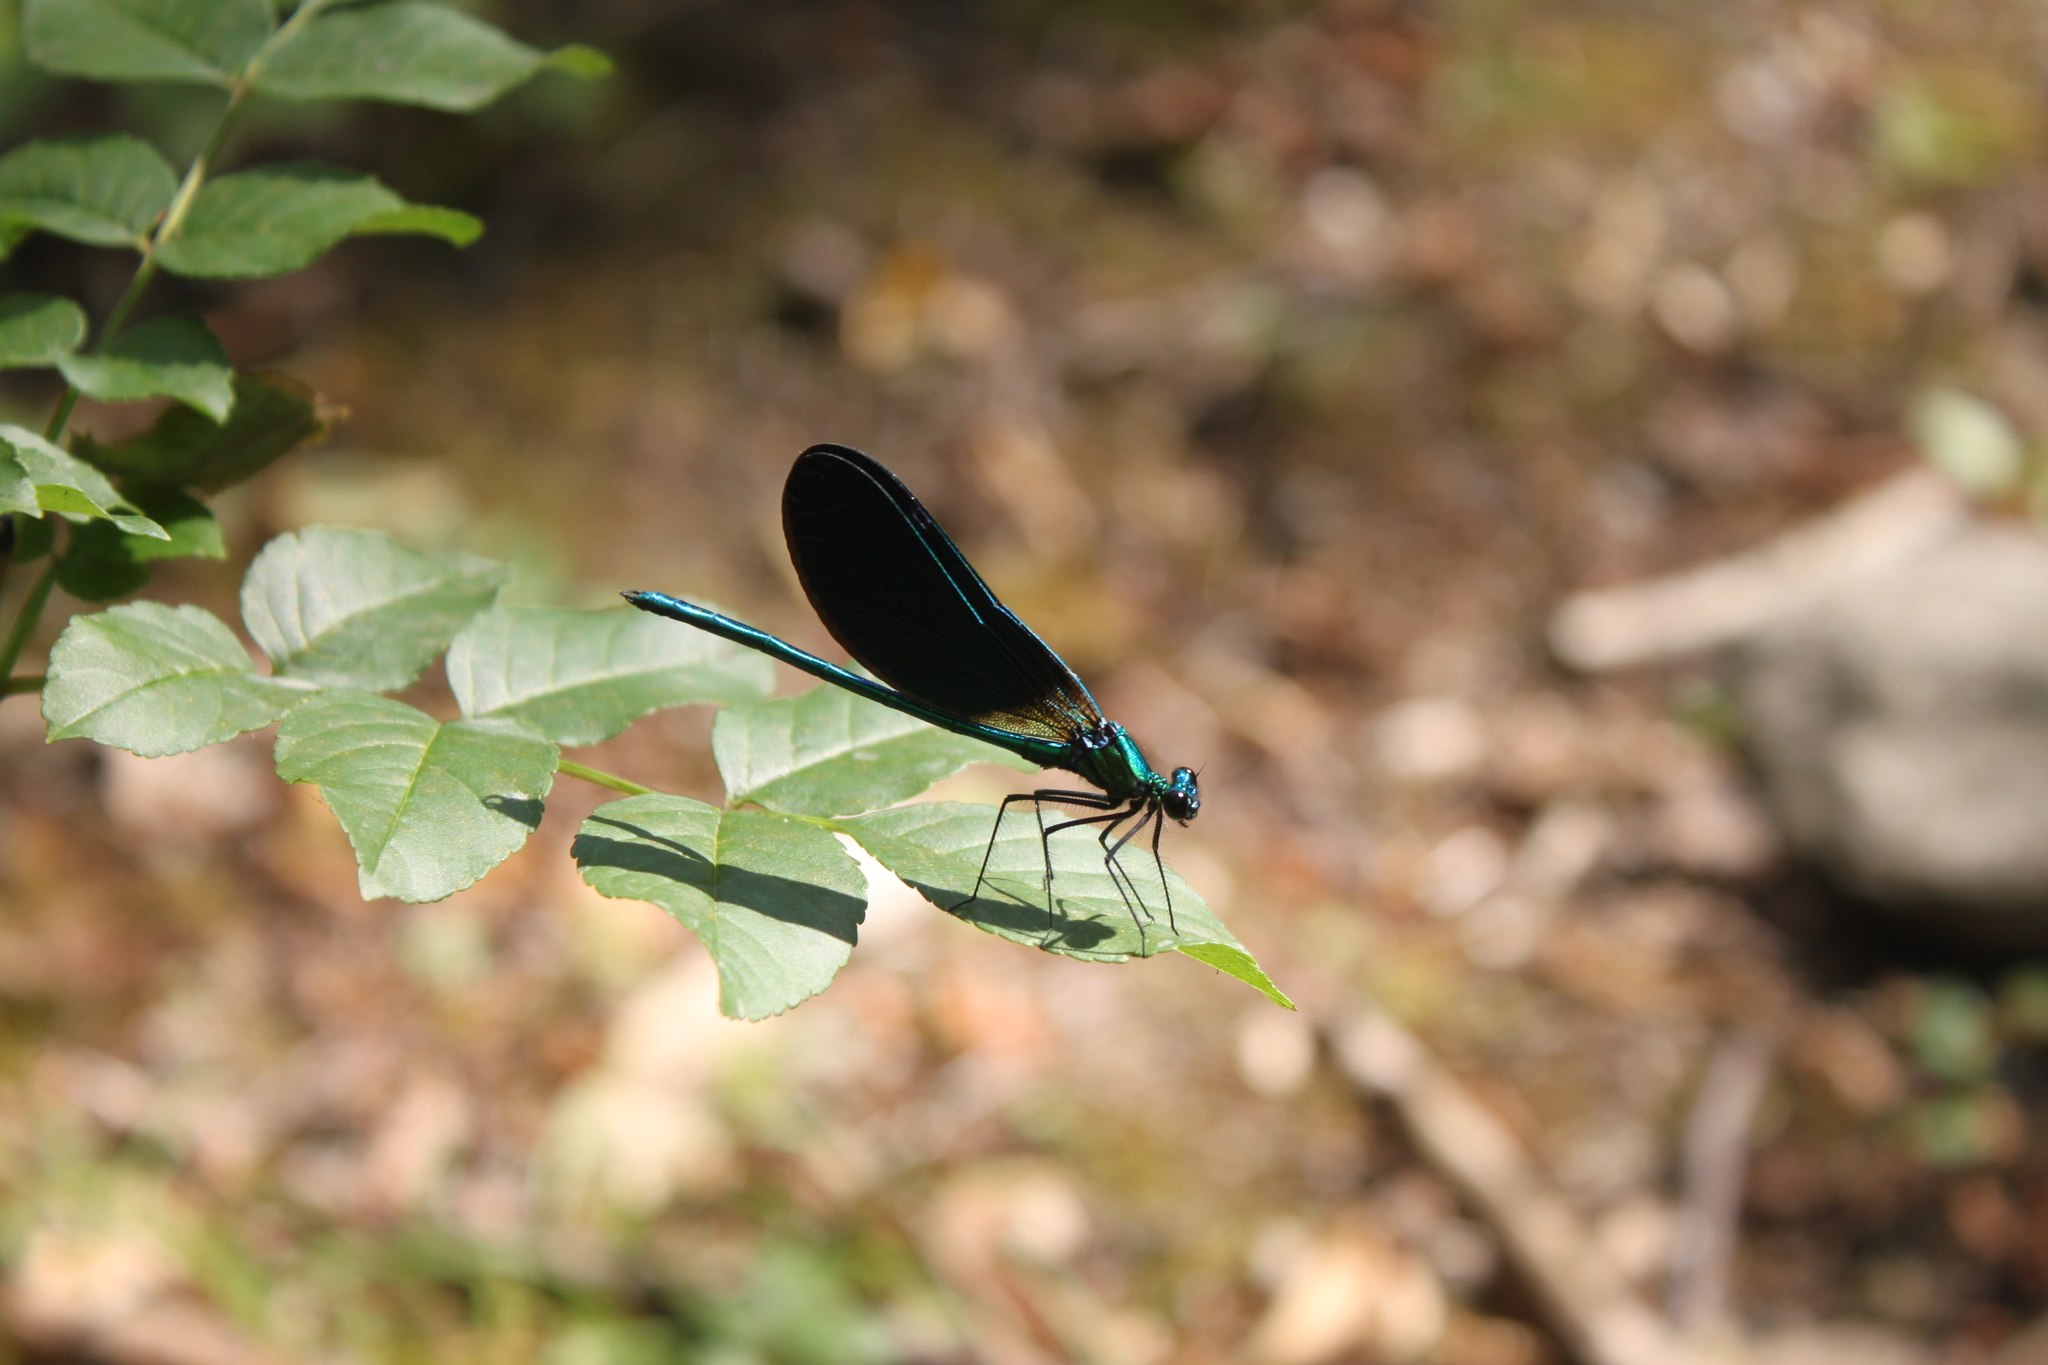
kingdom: Animalia
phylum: Arthropoda
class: Insecta
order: Odonata
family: Calopterygidae
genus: Calopteryx
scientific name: Calopteryx virgo
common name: Beautiful demoiselle
